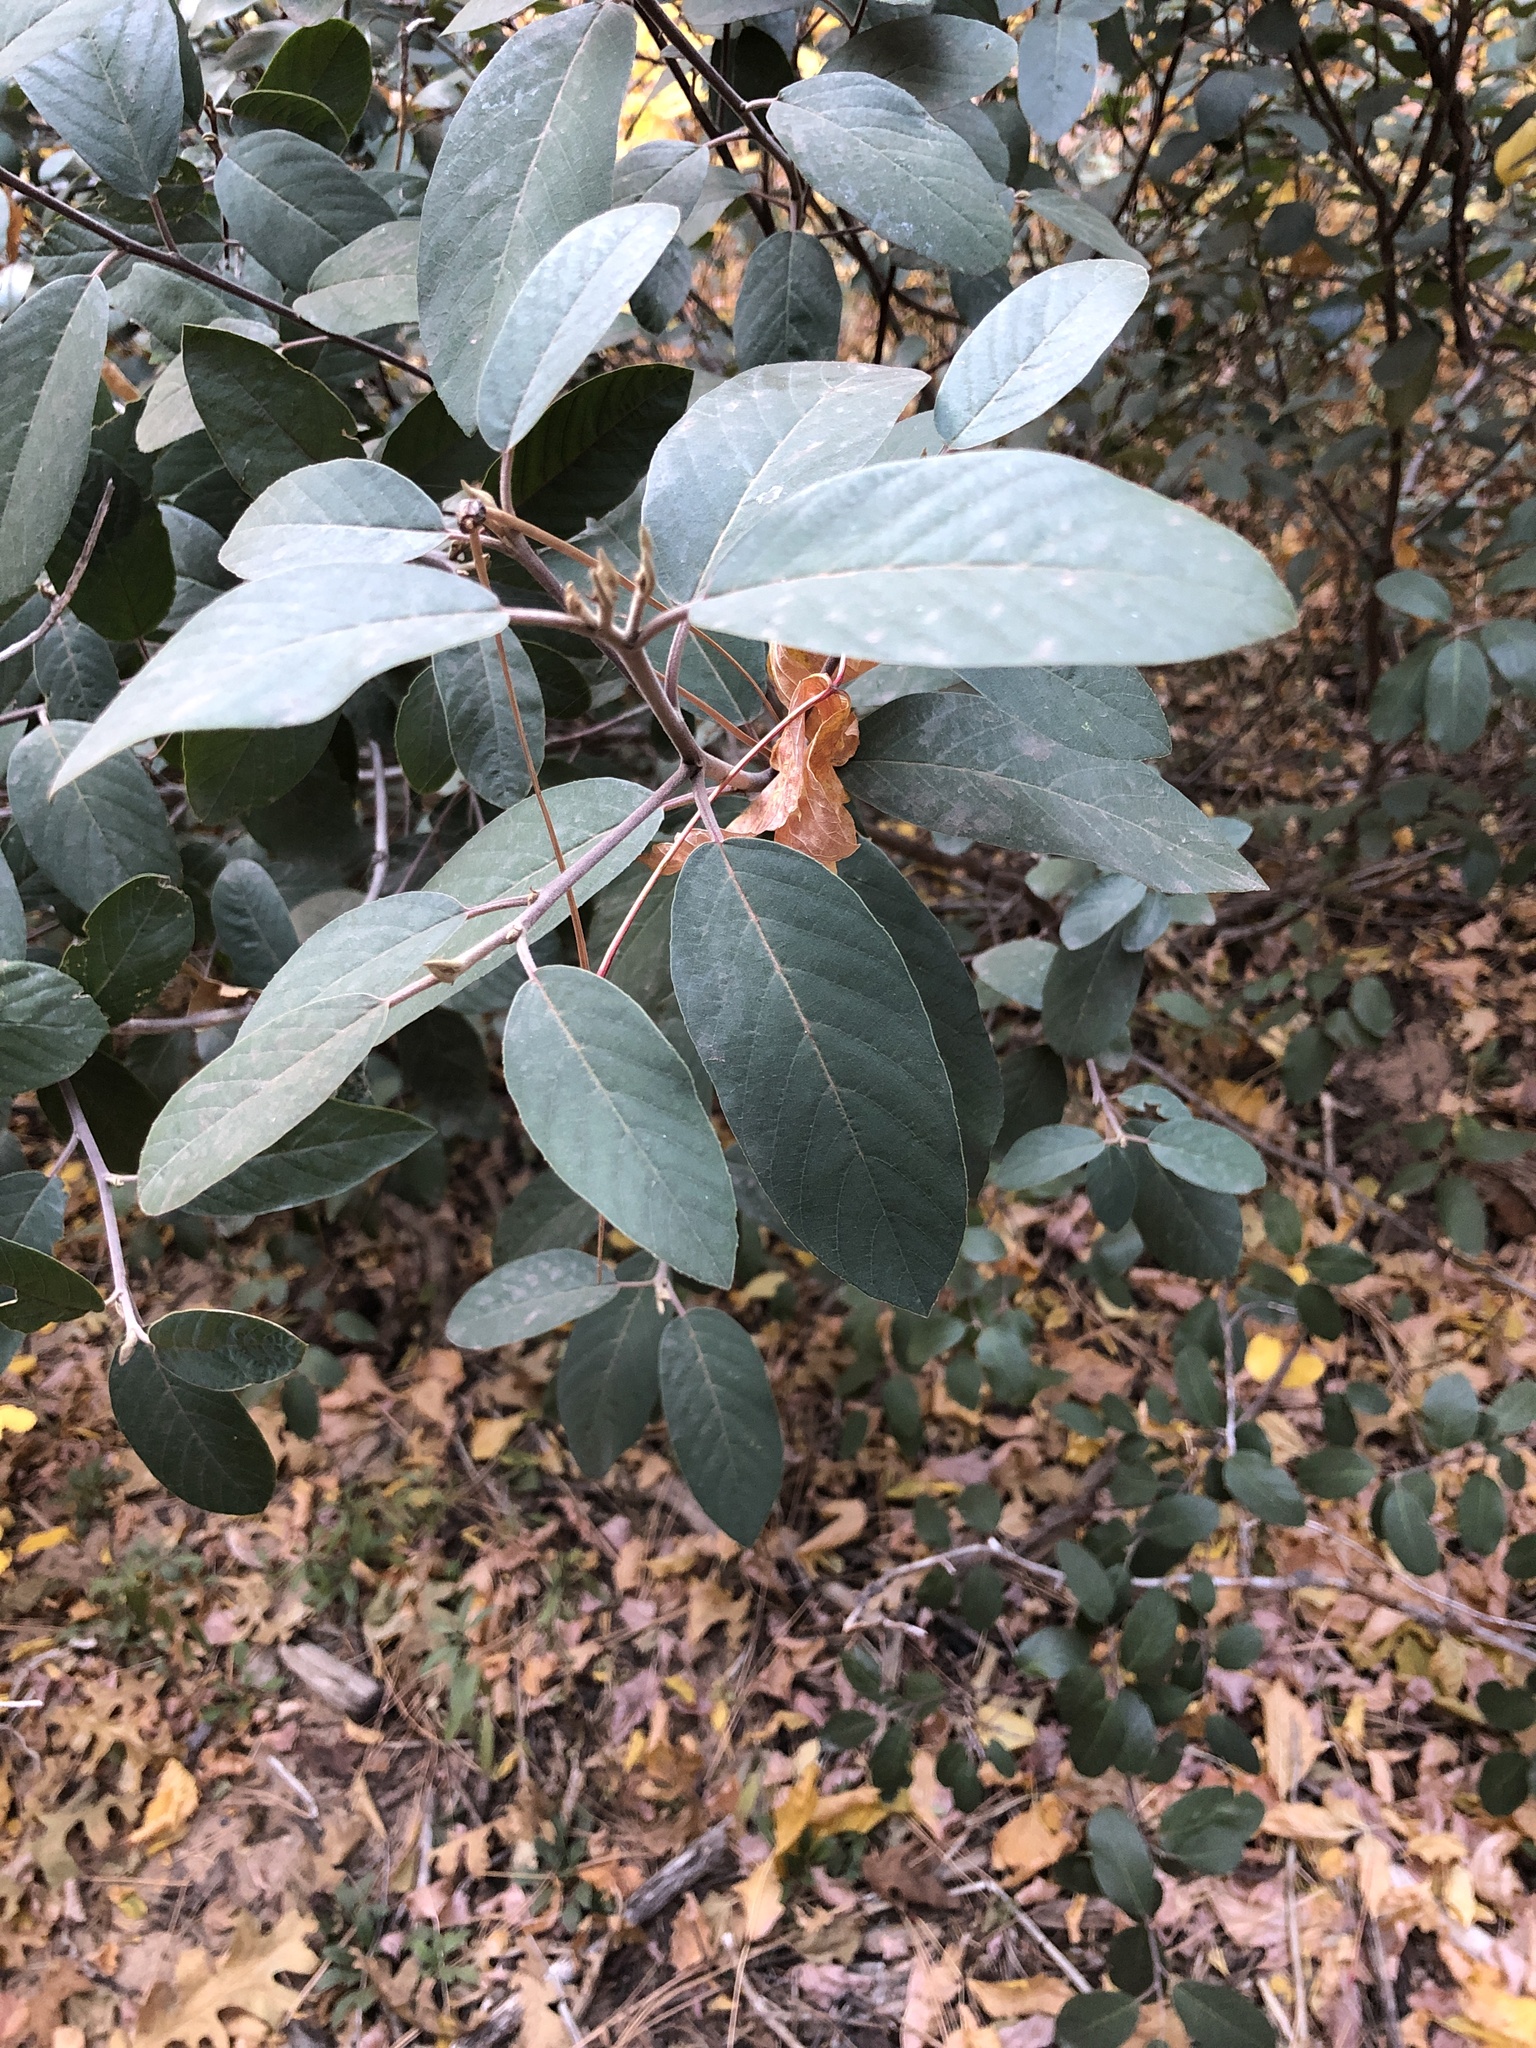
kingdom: Plantae
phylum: Tracheophyta
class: Magnoliopsida
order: Rosales
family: Rhamnaceae
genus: Frangula
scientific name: Frangula californica
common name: California buckthorn
